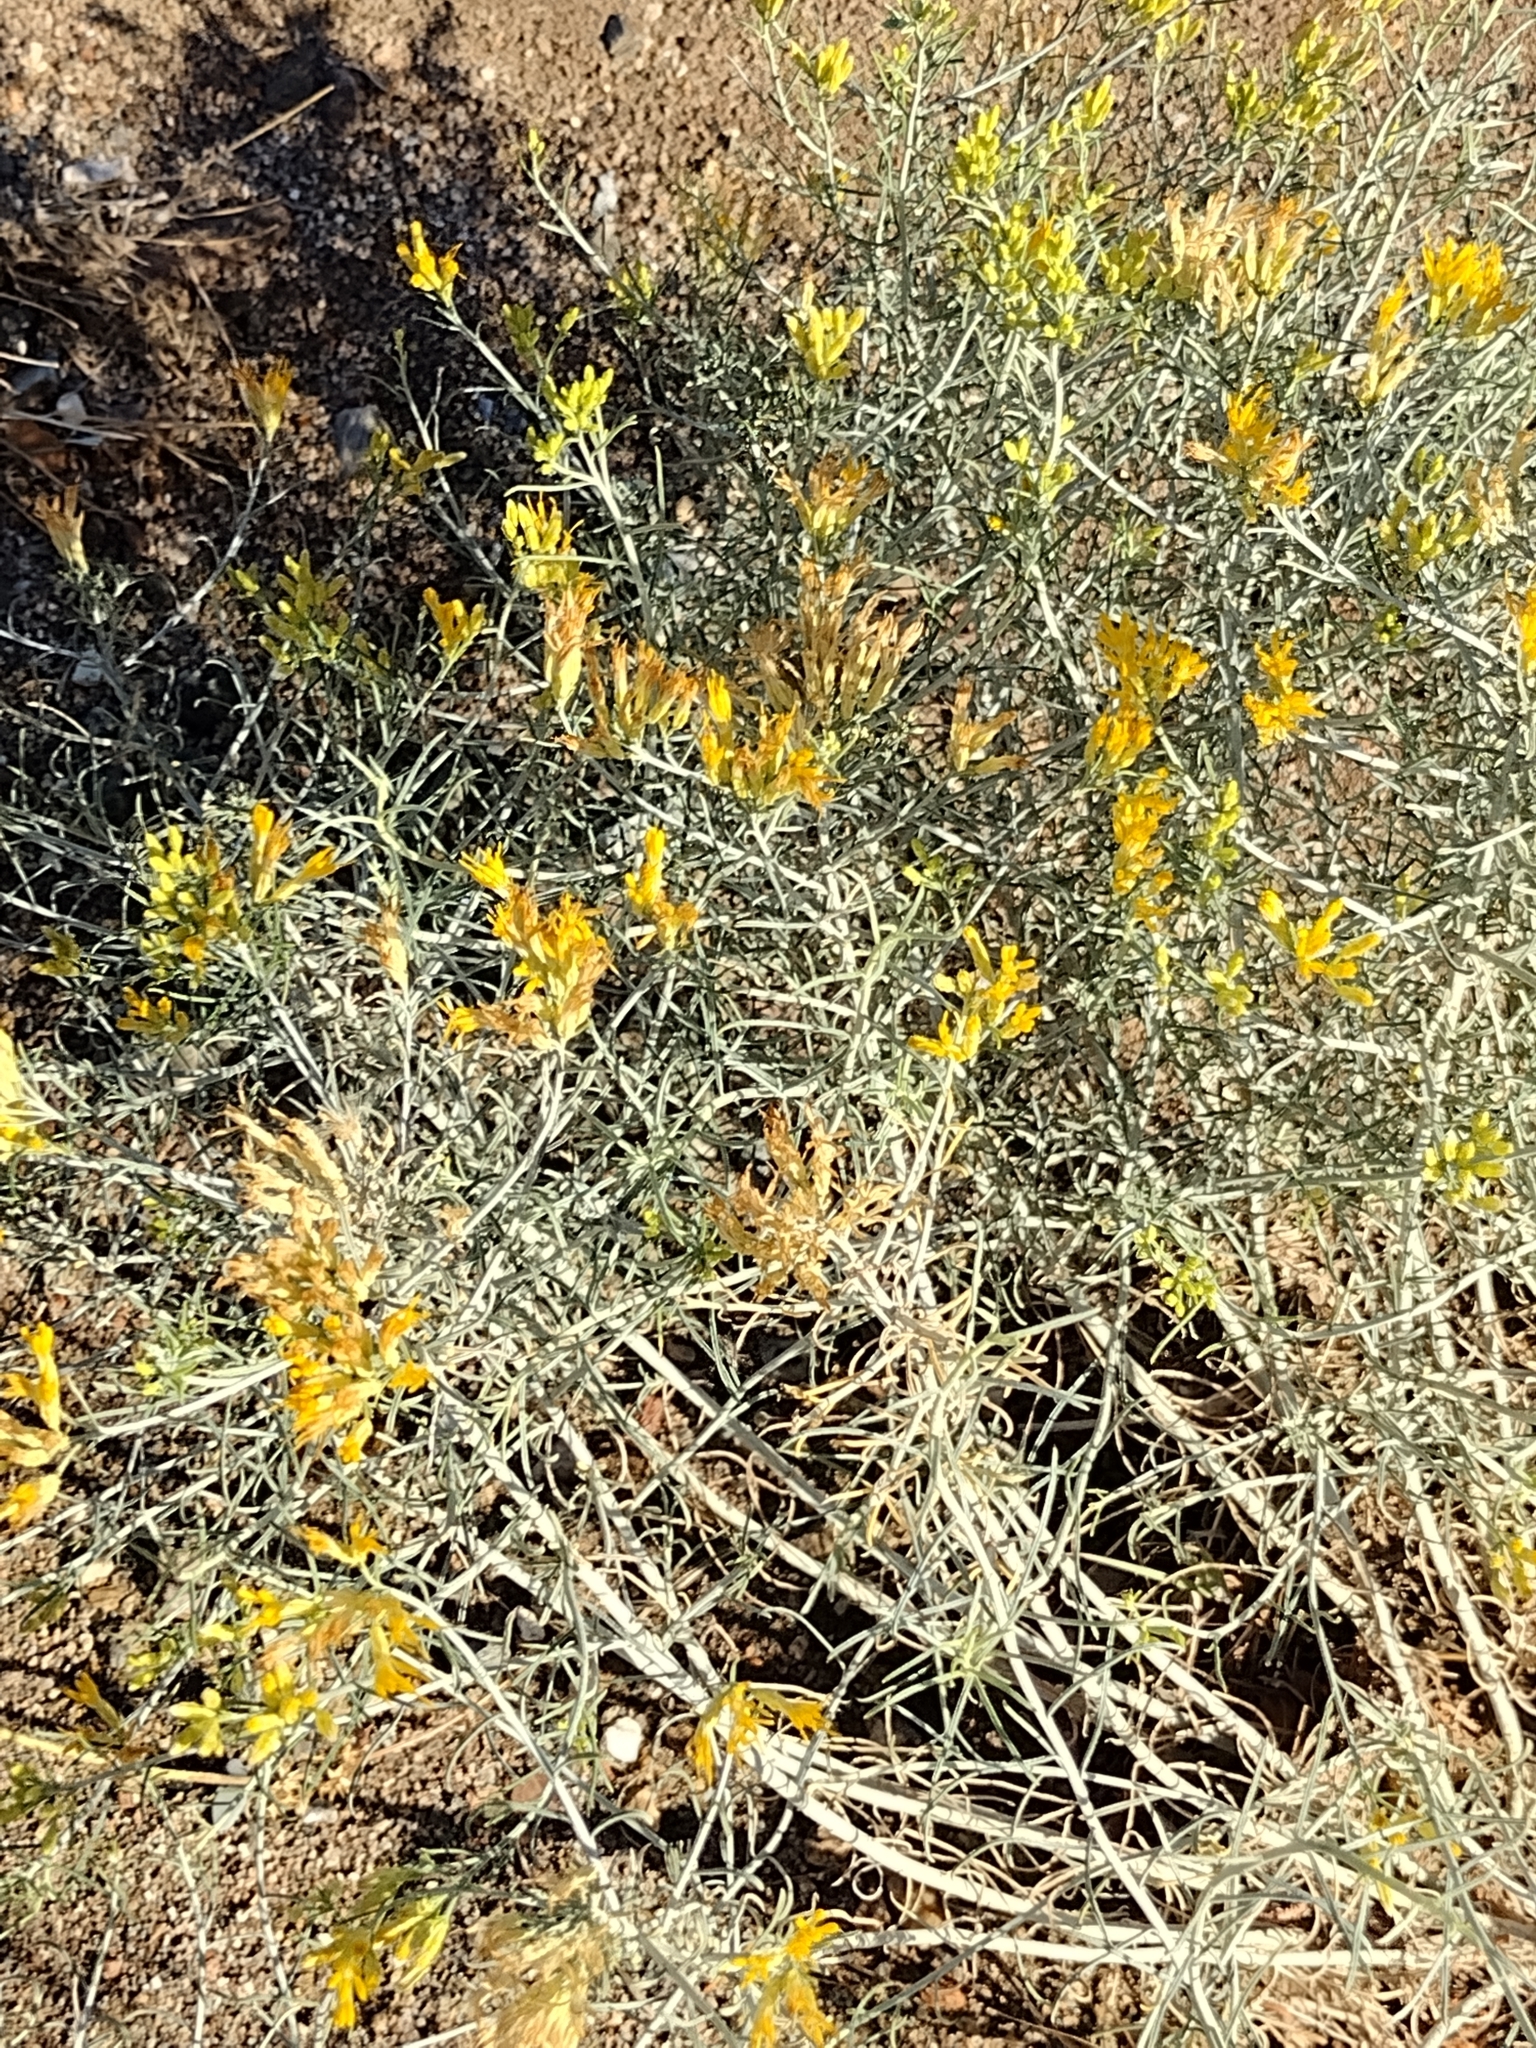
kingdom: Plantae
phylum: Tracheophyta
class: Magnoliopsida
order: Asterales
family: Asteraceae
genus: Ericameria
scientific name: Ericameria nauseosa
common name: Rubber rabbitbrush
